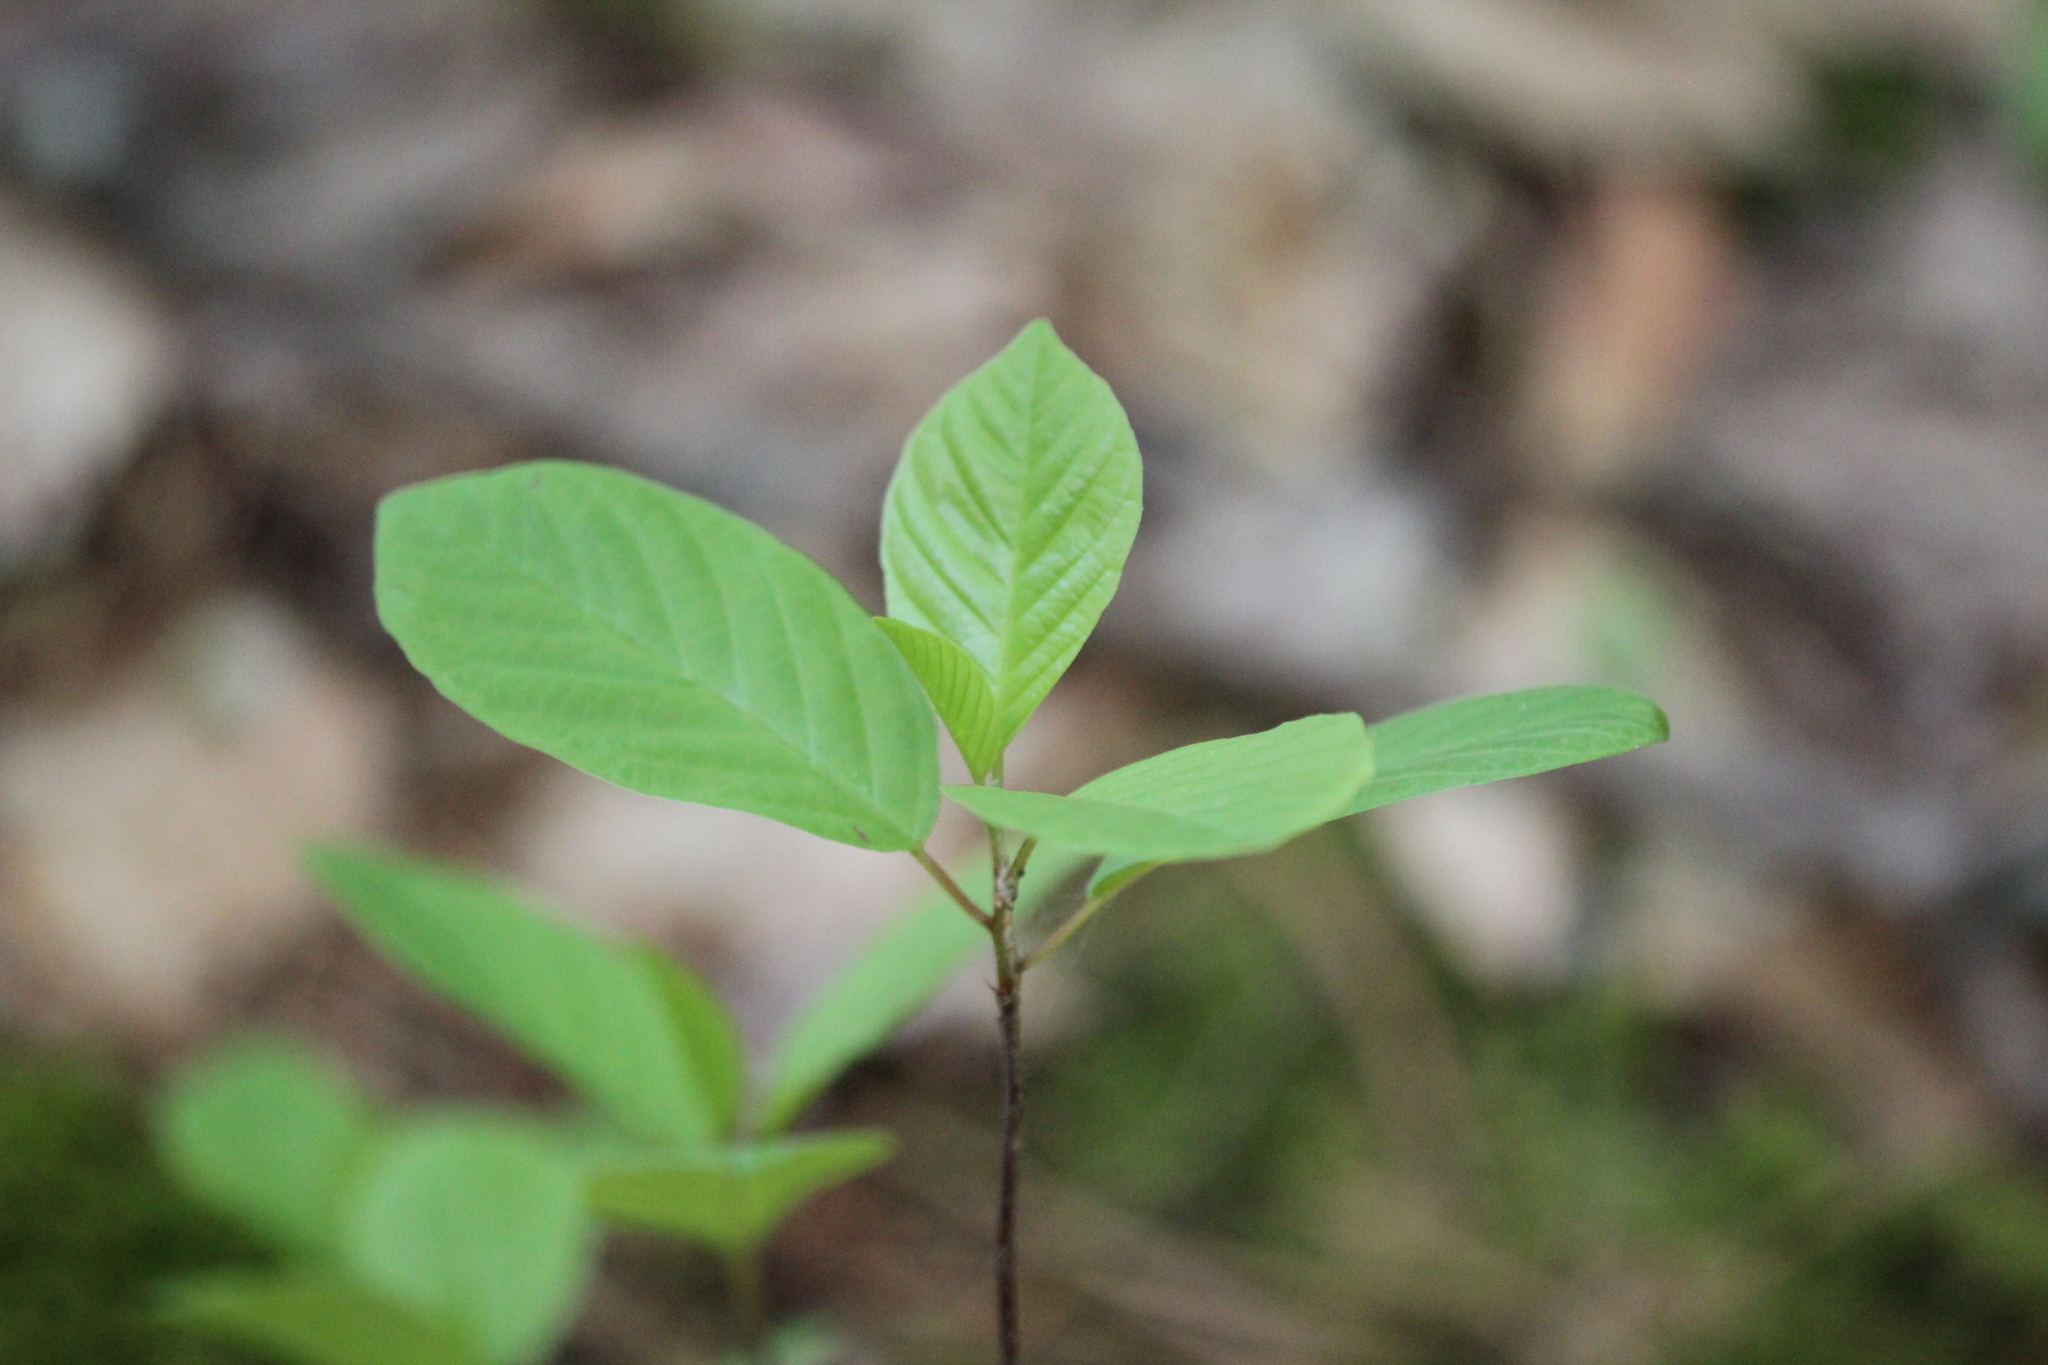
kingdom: Plantae
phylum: Tracheophyta
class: Magnoliopsida
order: Rosales
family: Rhamnaceae
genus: Frangula
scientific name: Frangula alnus
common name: Alder buckthorn
